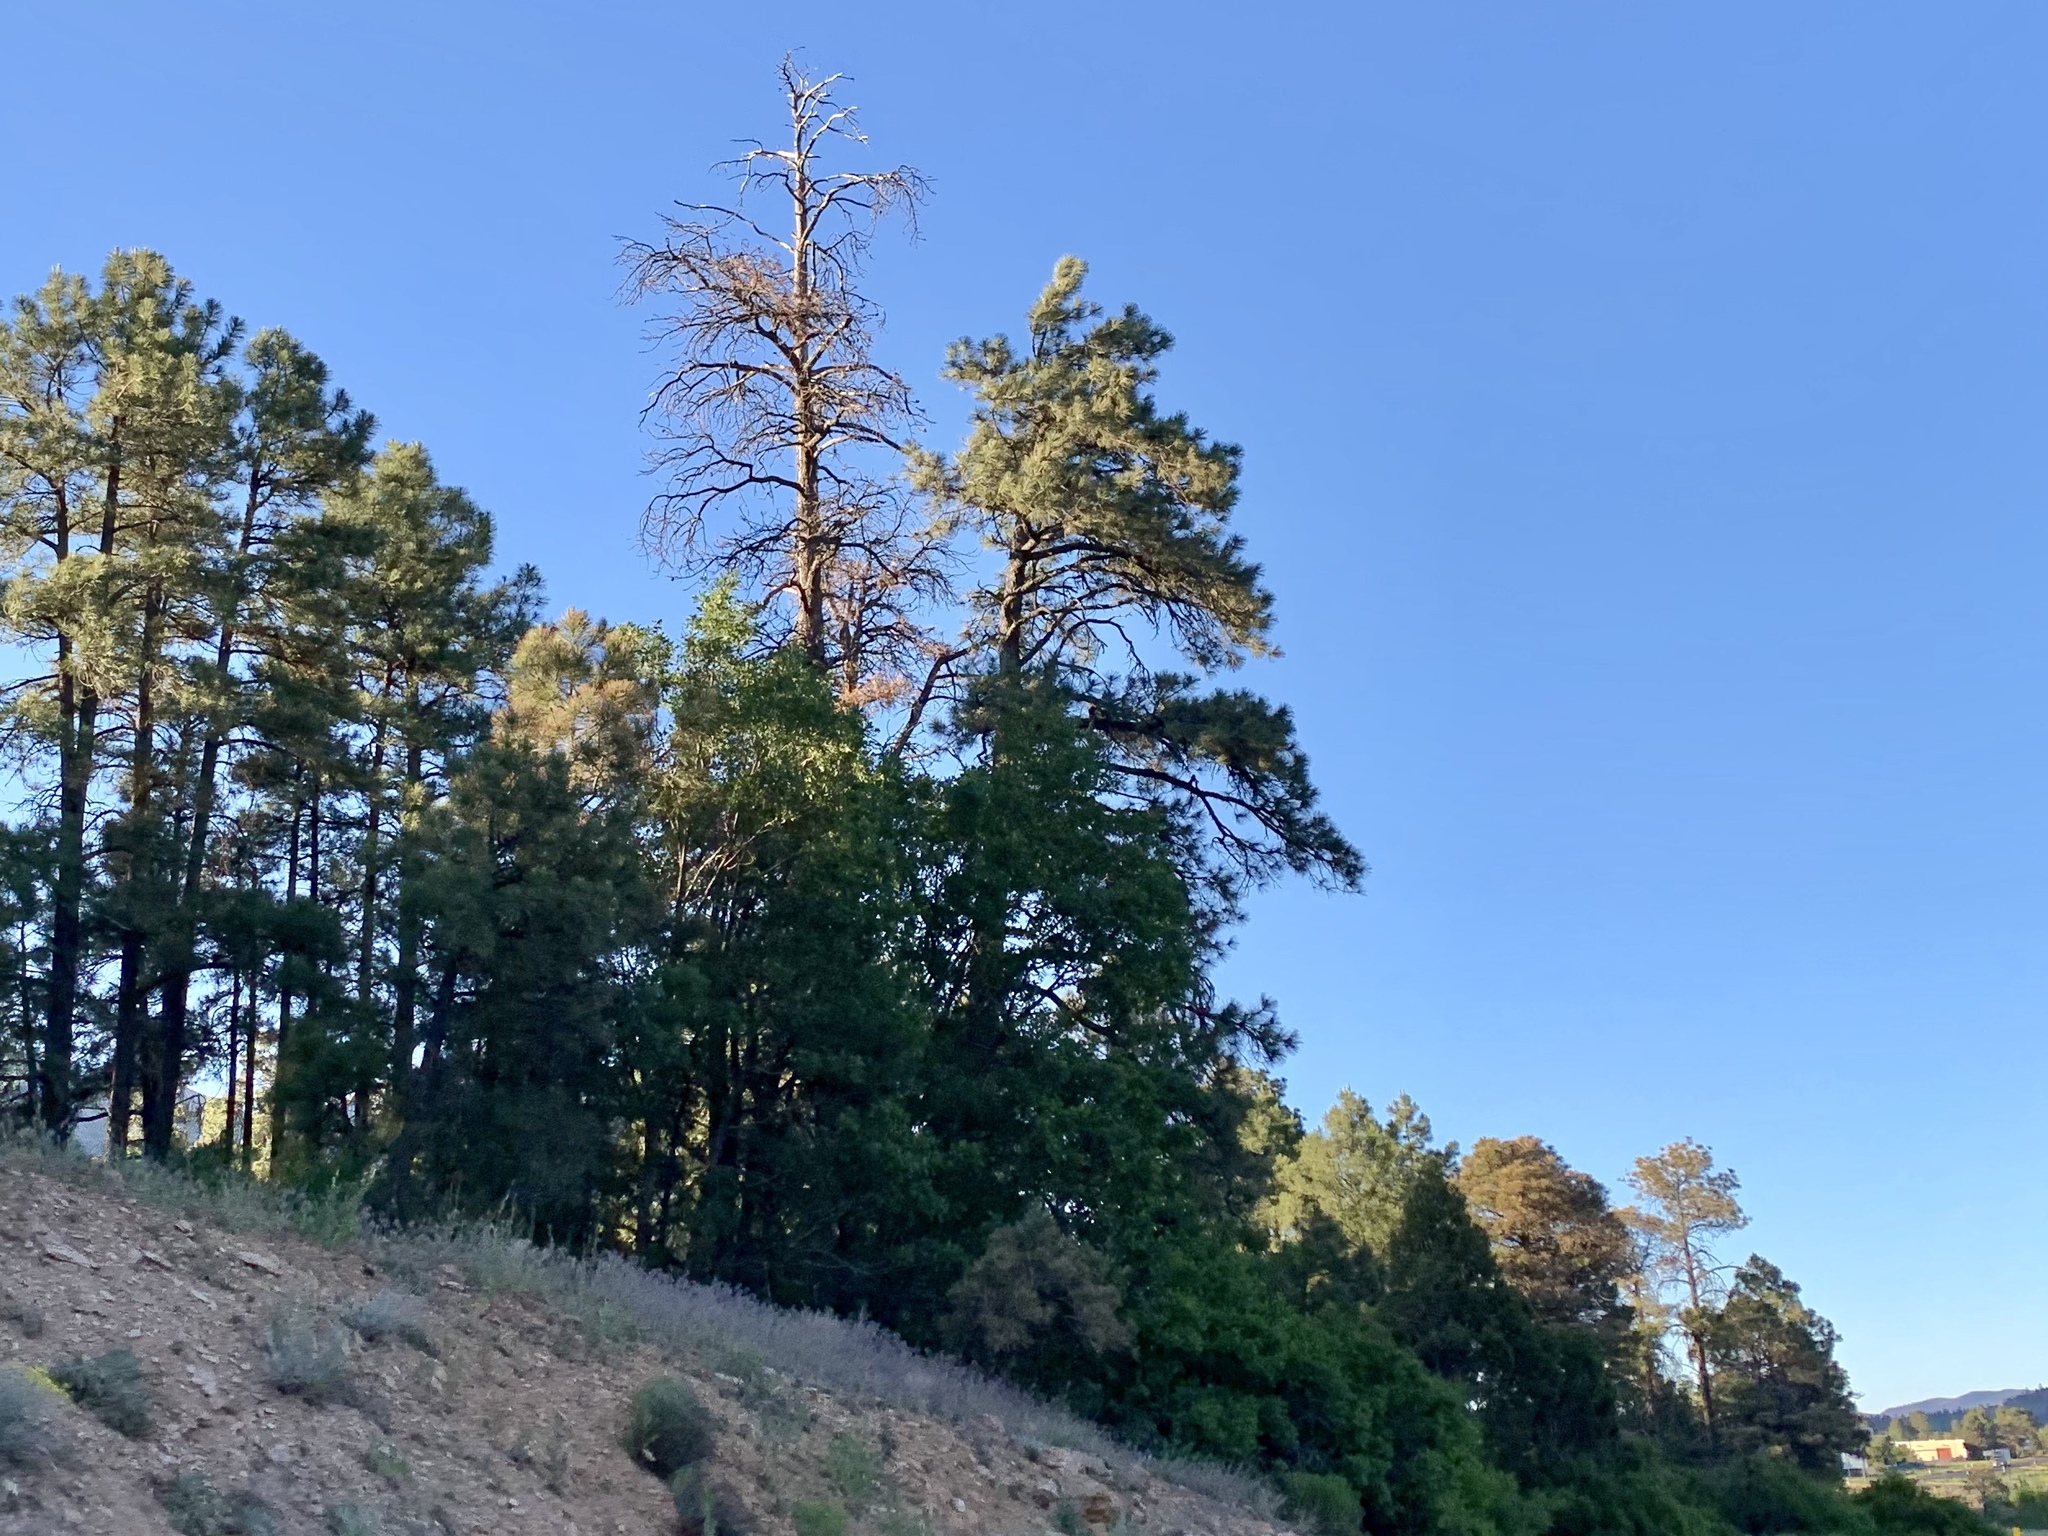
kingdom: Plantae
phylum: Tracheophyta
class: Pinopsida
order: Pinales
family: Pinaceae
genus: Pinus
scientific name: Pinus ponderosa
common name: Western yellow-pine
